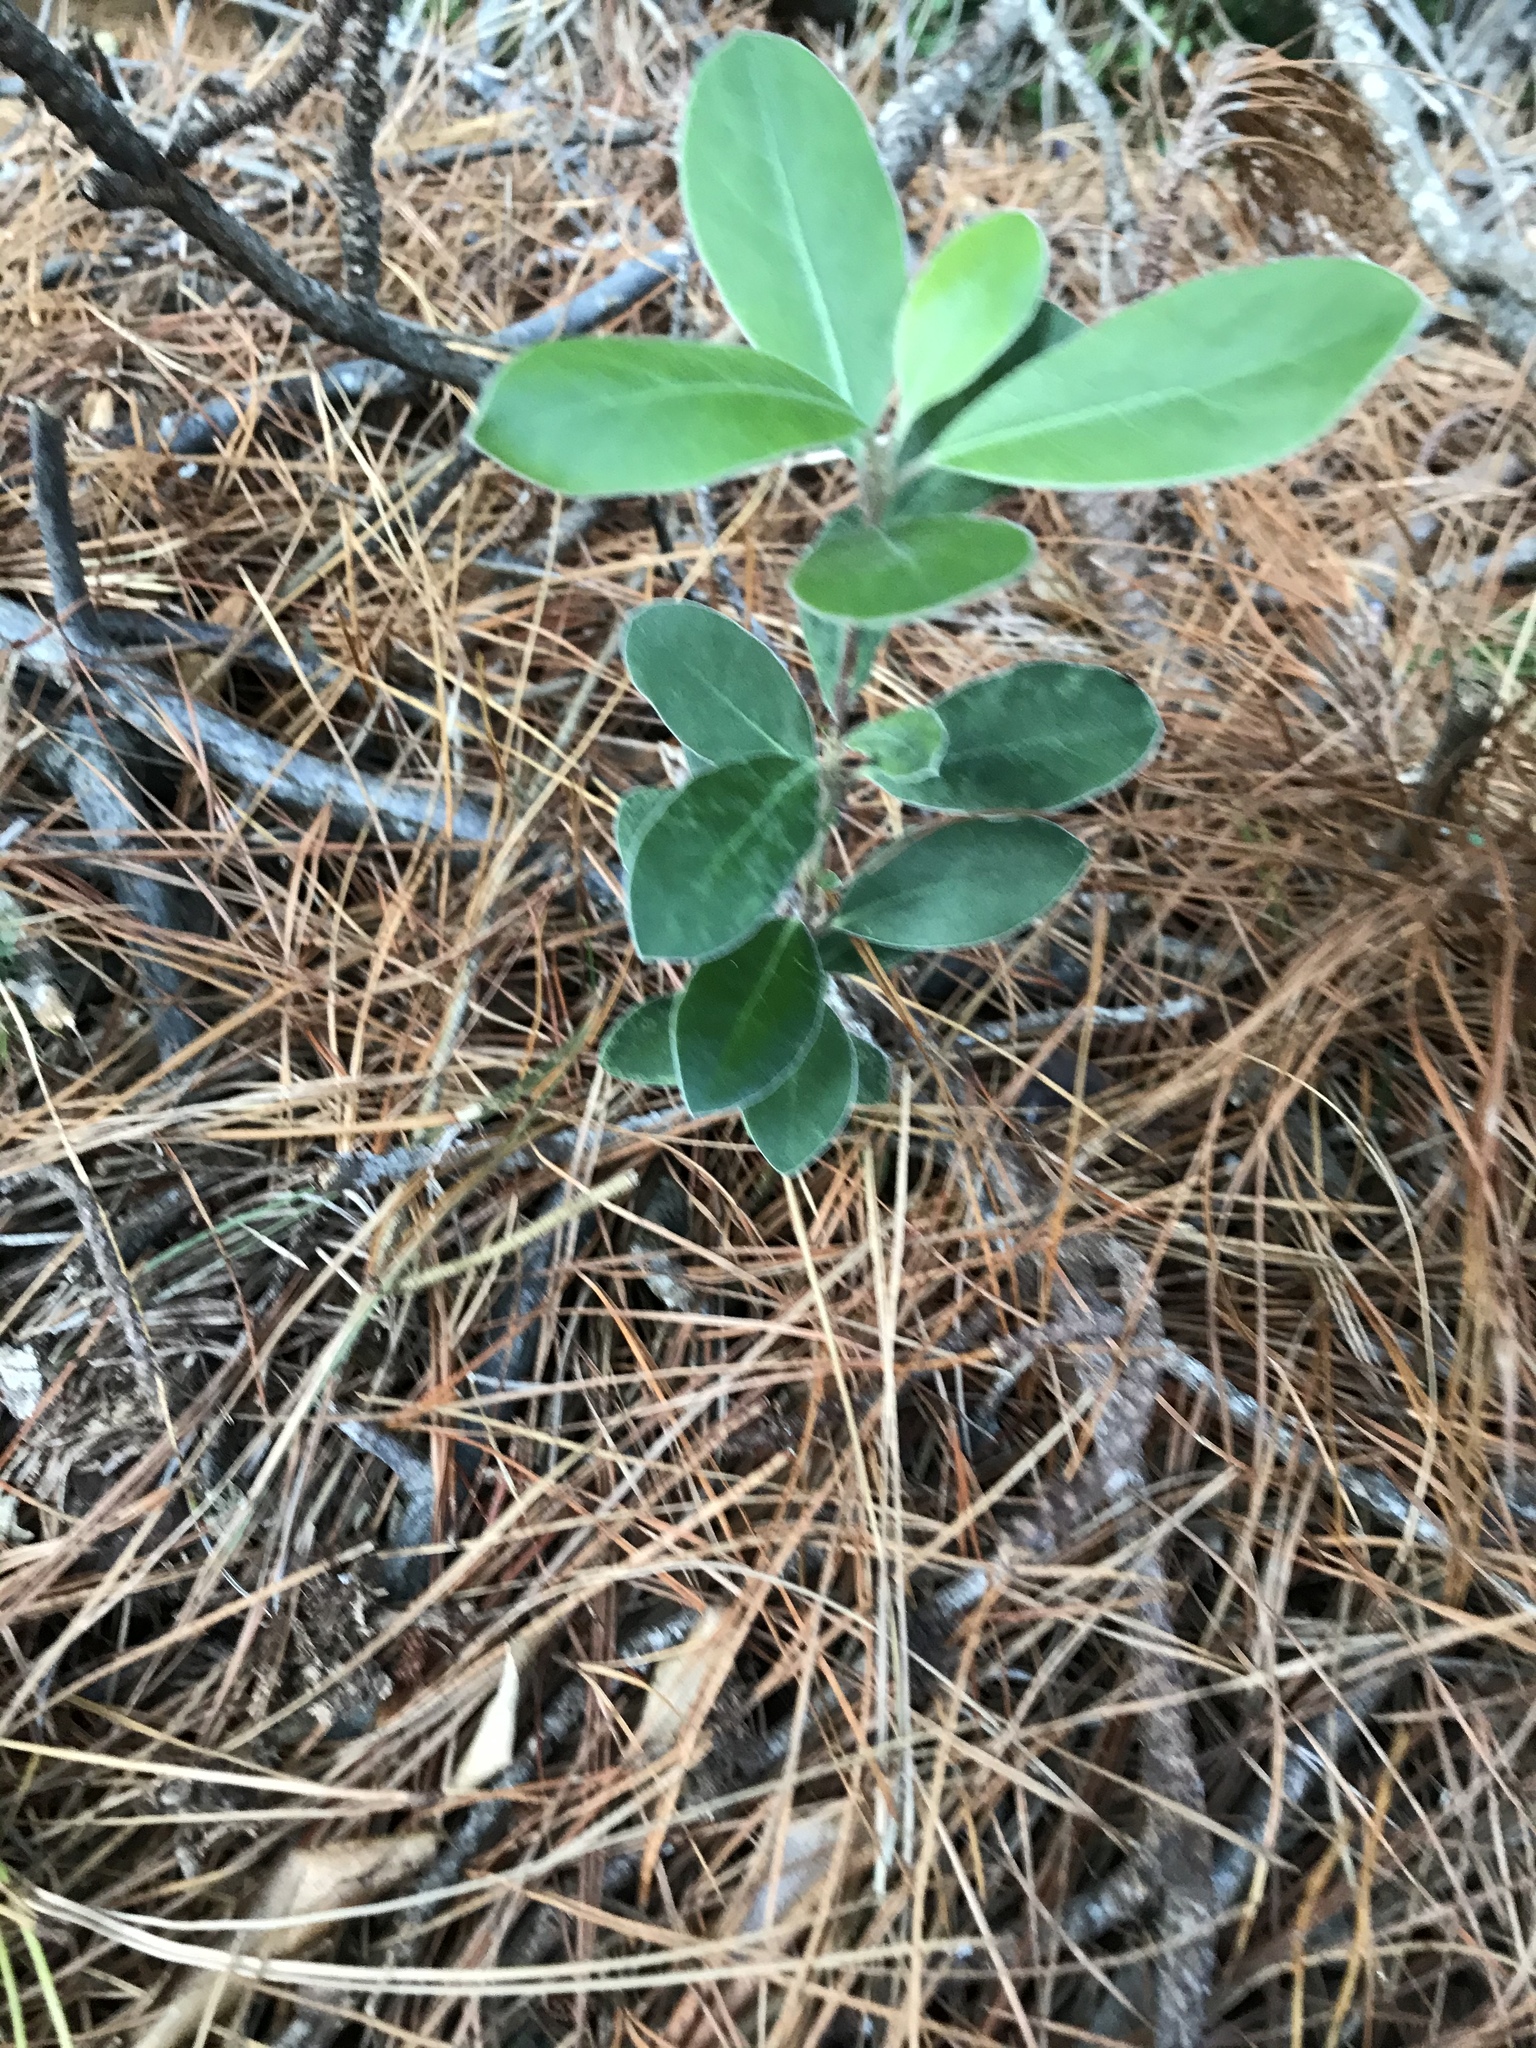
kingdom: Plantae
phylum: Tracheophyta
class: Magnoliopsida
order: Apiales
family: Pittosporaceae
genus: Pittosporum
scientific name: Pittosporum crassifolium
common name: Karo
